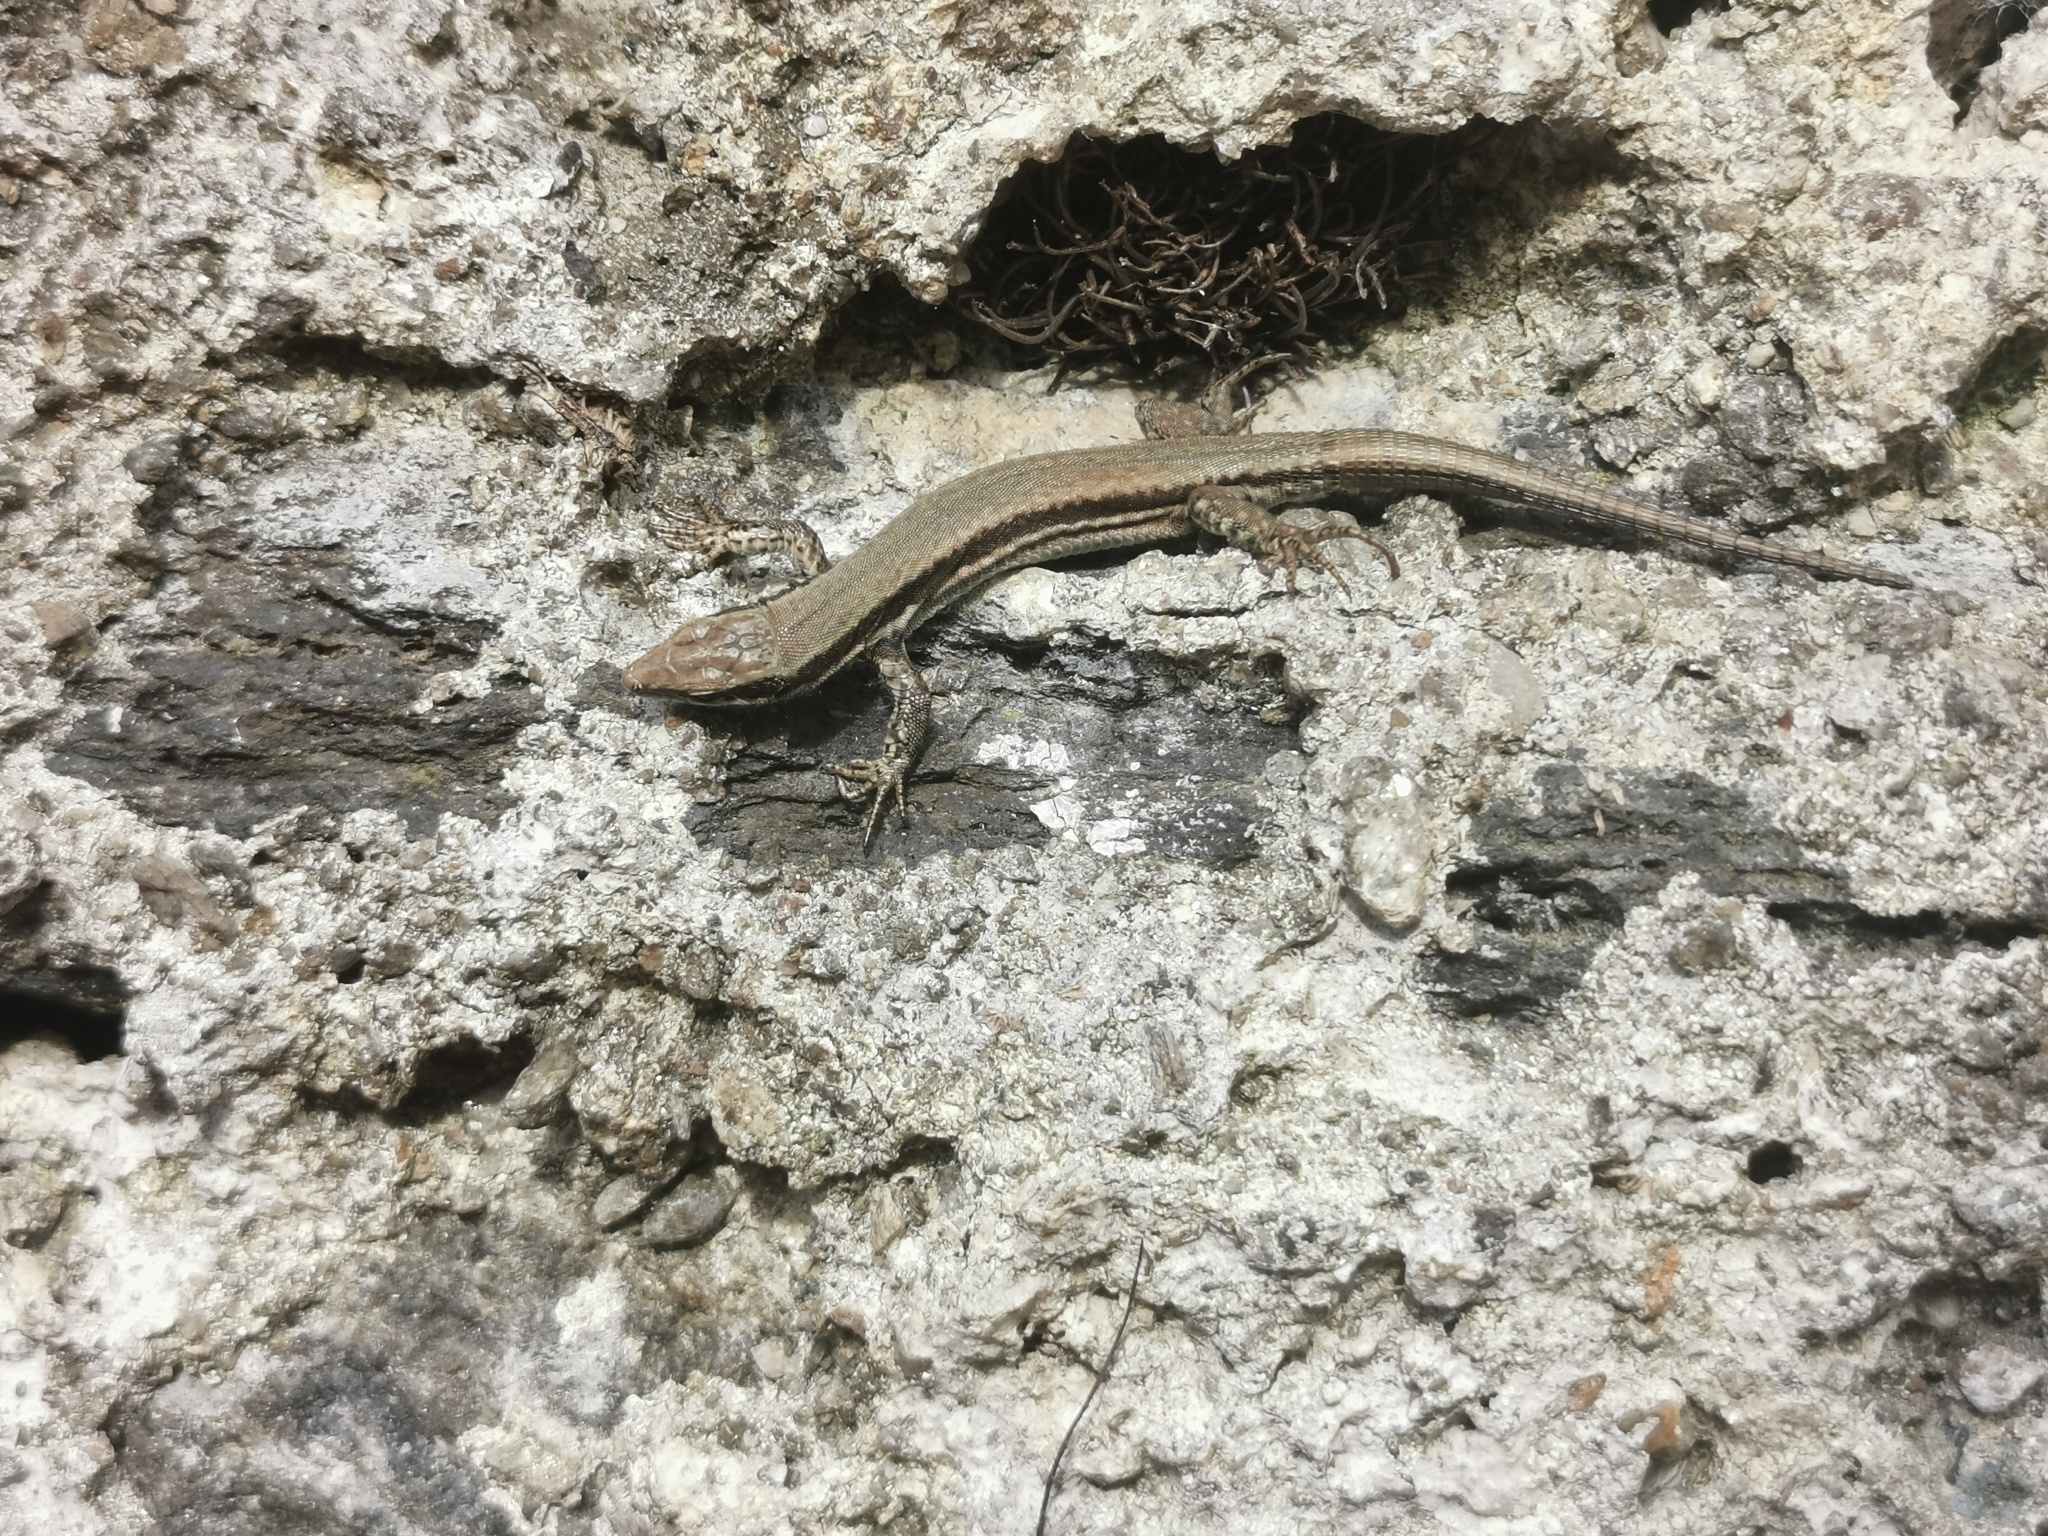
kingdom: Animalia
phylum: Chordata
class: Squamata
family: Lacertidae
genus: Podarcis
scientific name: Podarcis muralis
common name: Common wall lizard
